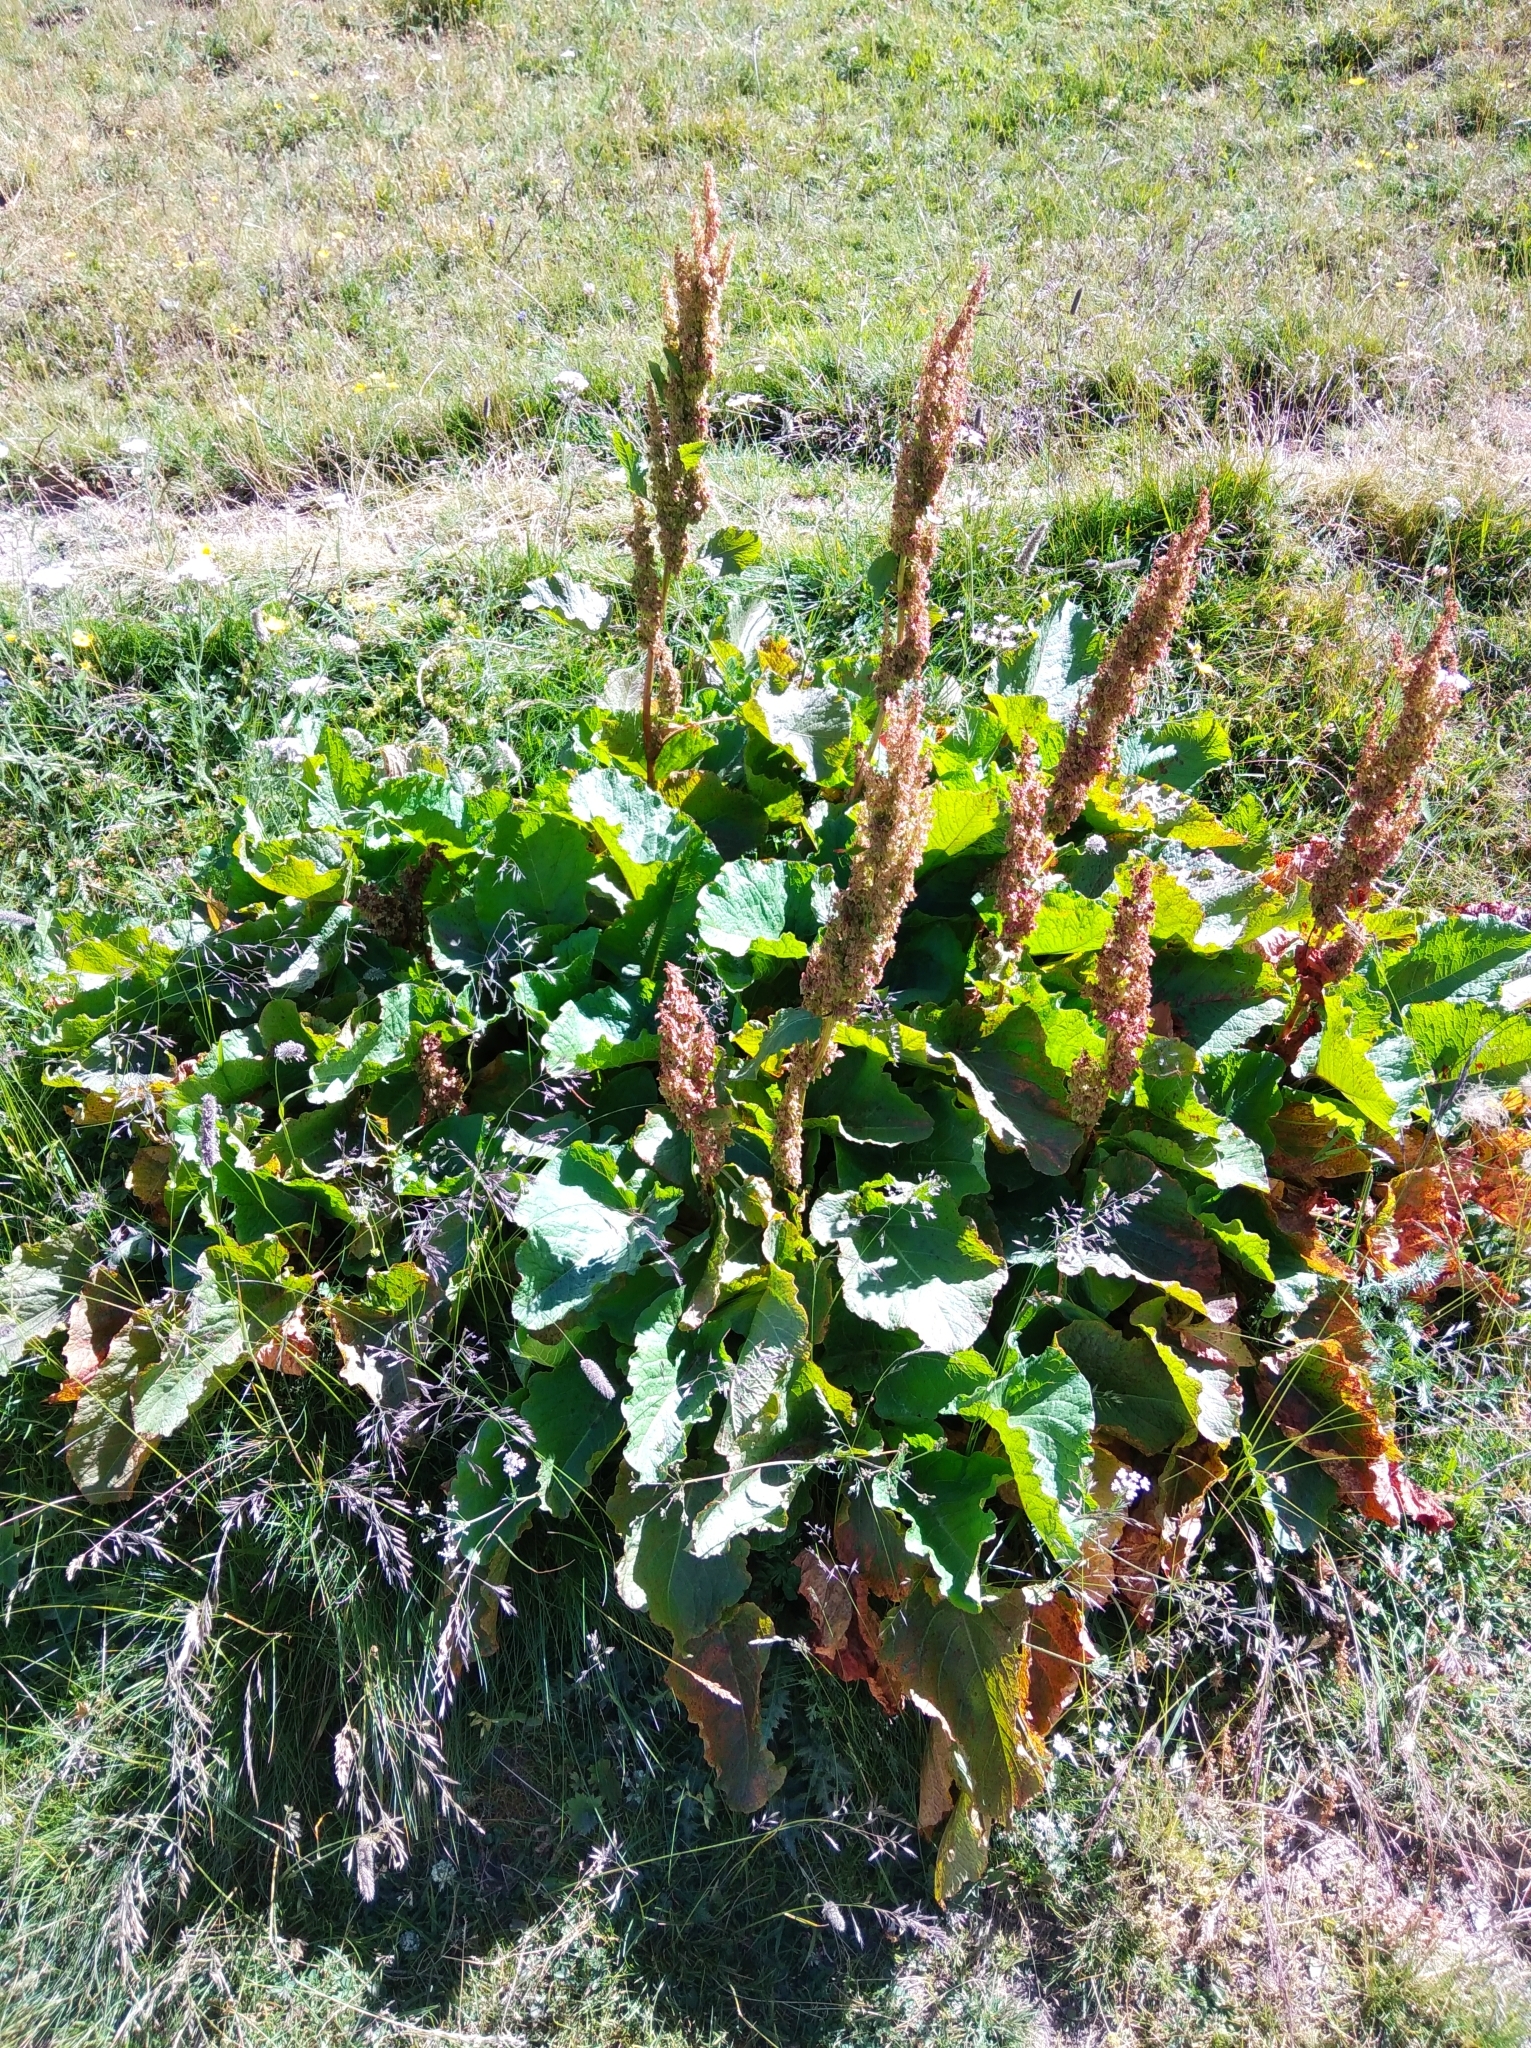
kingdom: Plantae
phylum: Tracheophyta
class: Magnoliopsida
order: Caryophyllales
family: Polygonaceae
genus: Rumex
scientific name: Rumex alpinus
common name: Alpine dock
